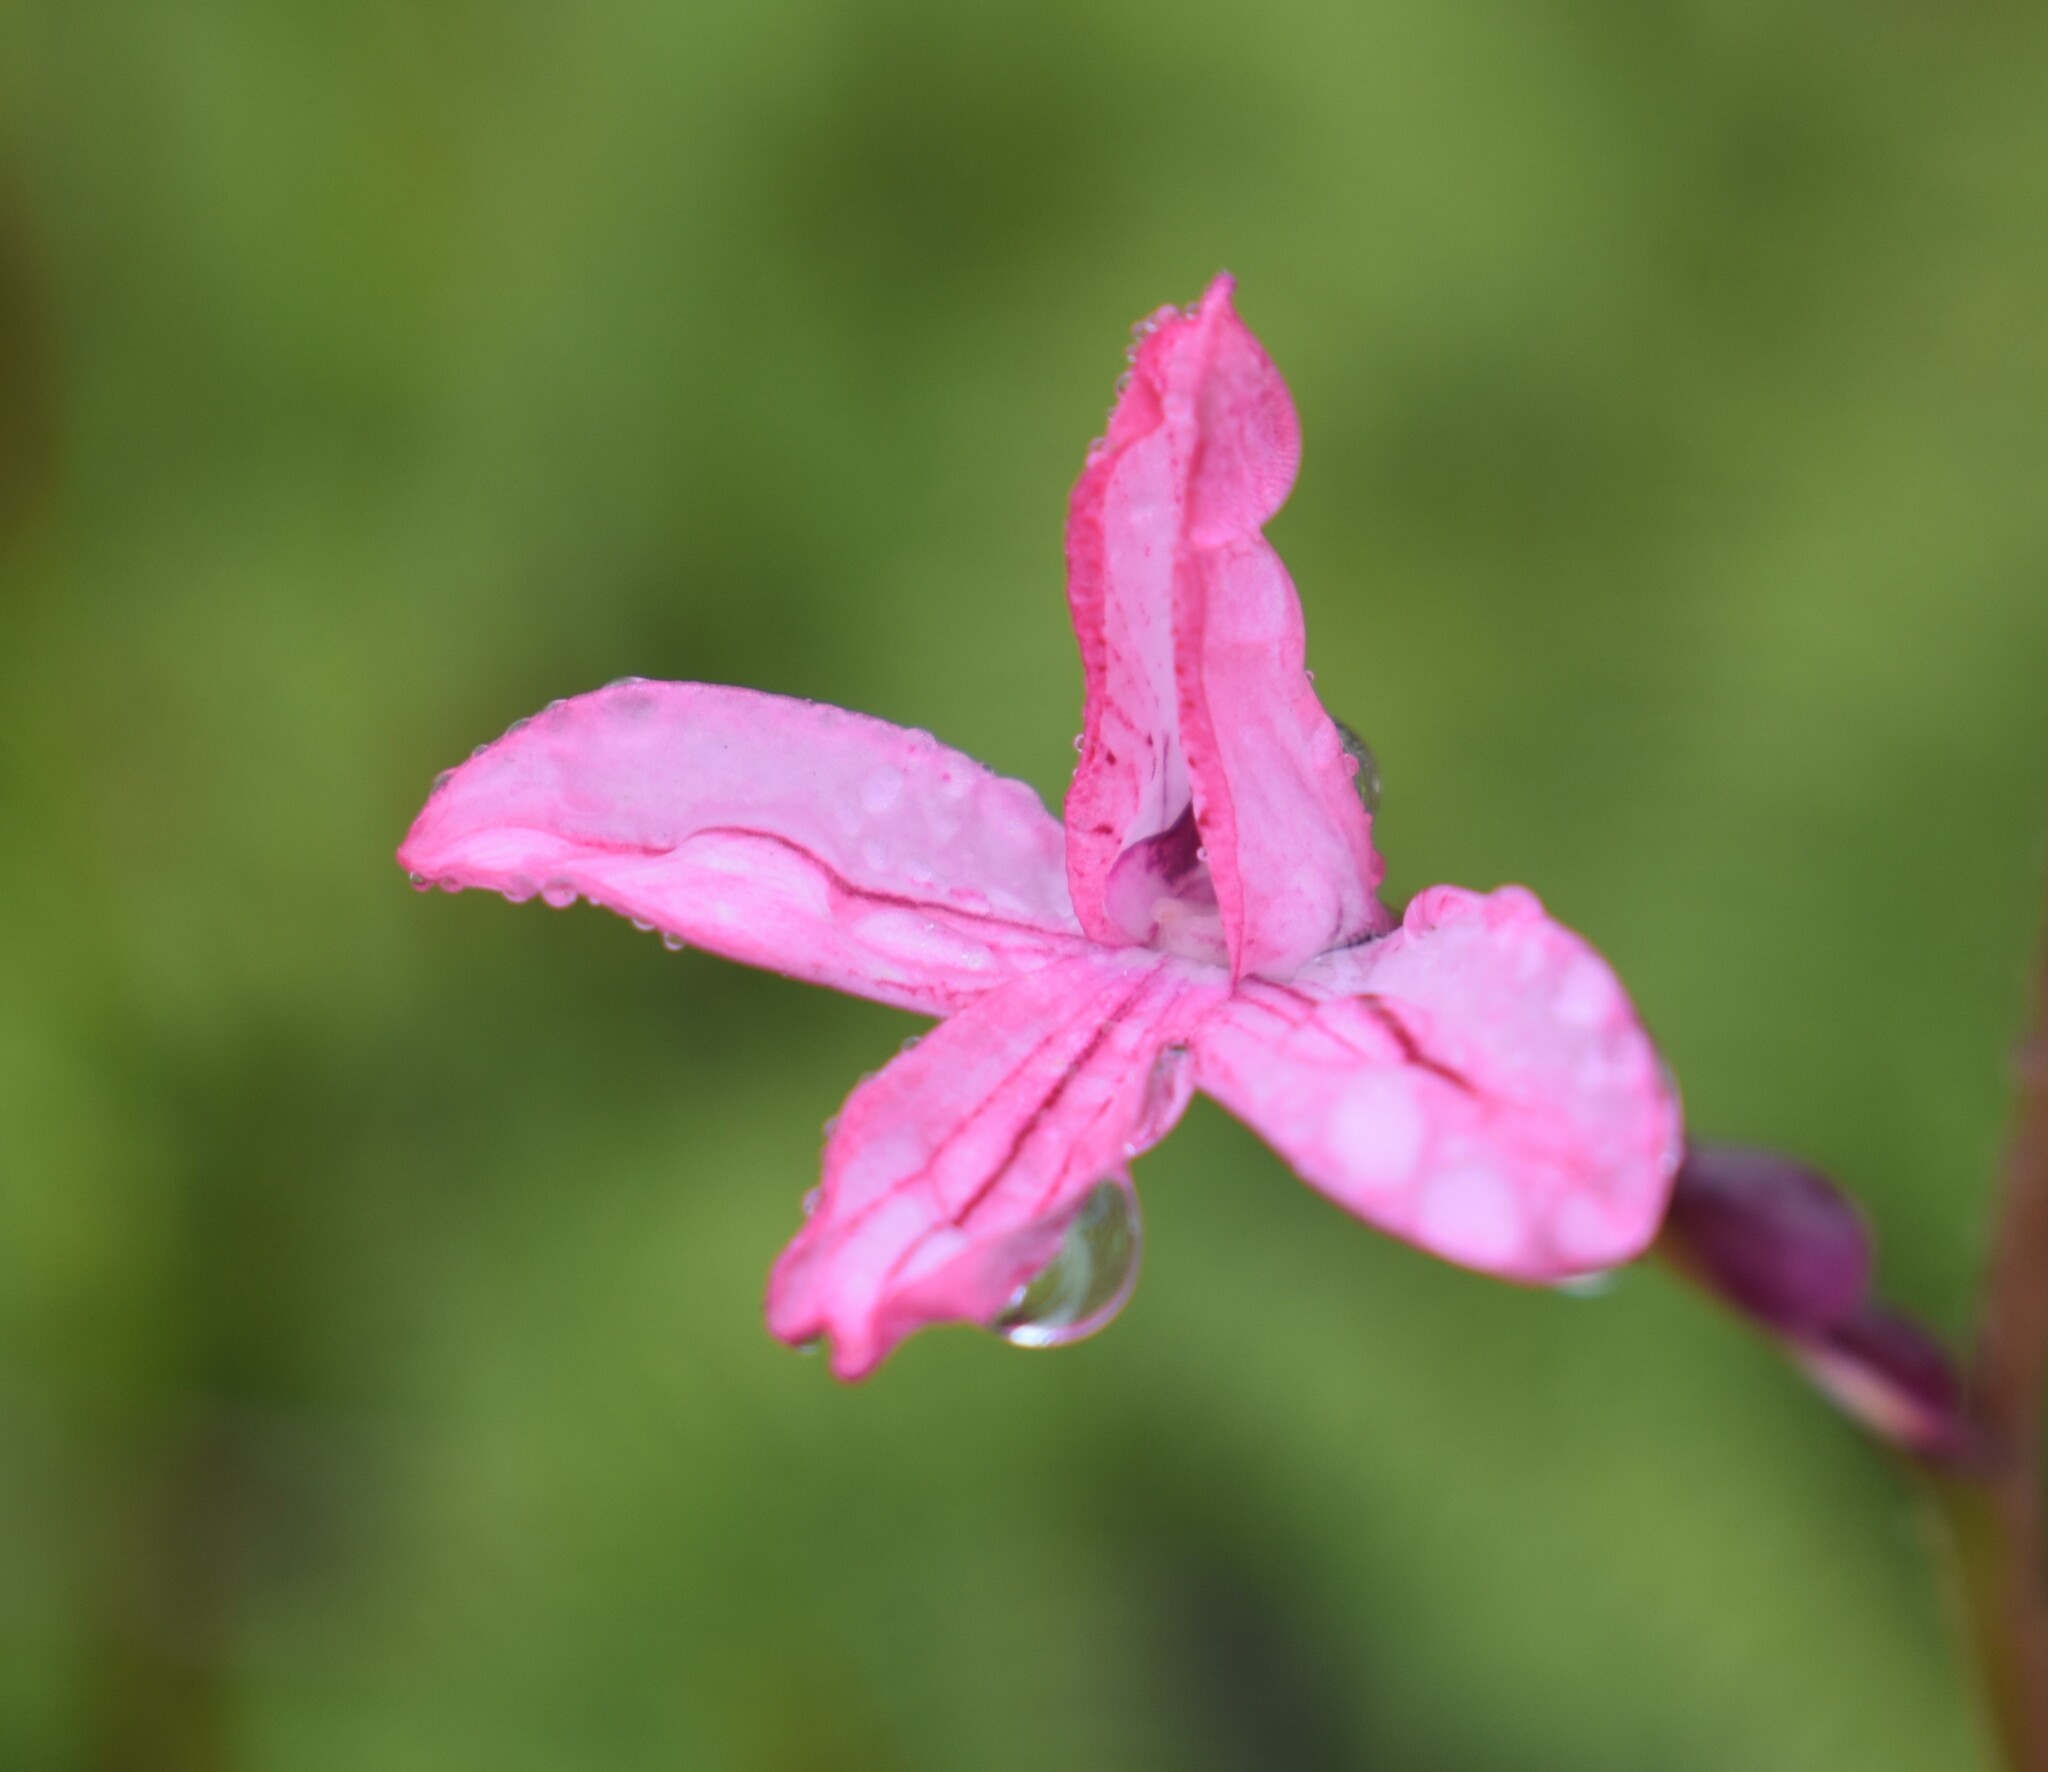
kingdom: Plantae
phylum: Tracheophyta
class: Liliopsida
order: Asparagales
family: Orchidaceae
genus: Disa
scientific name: Disa gladioliflora
